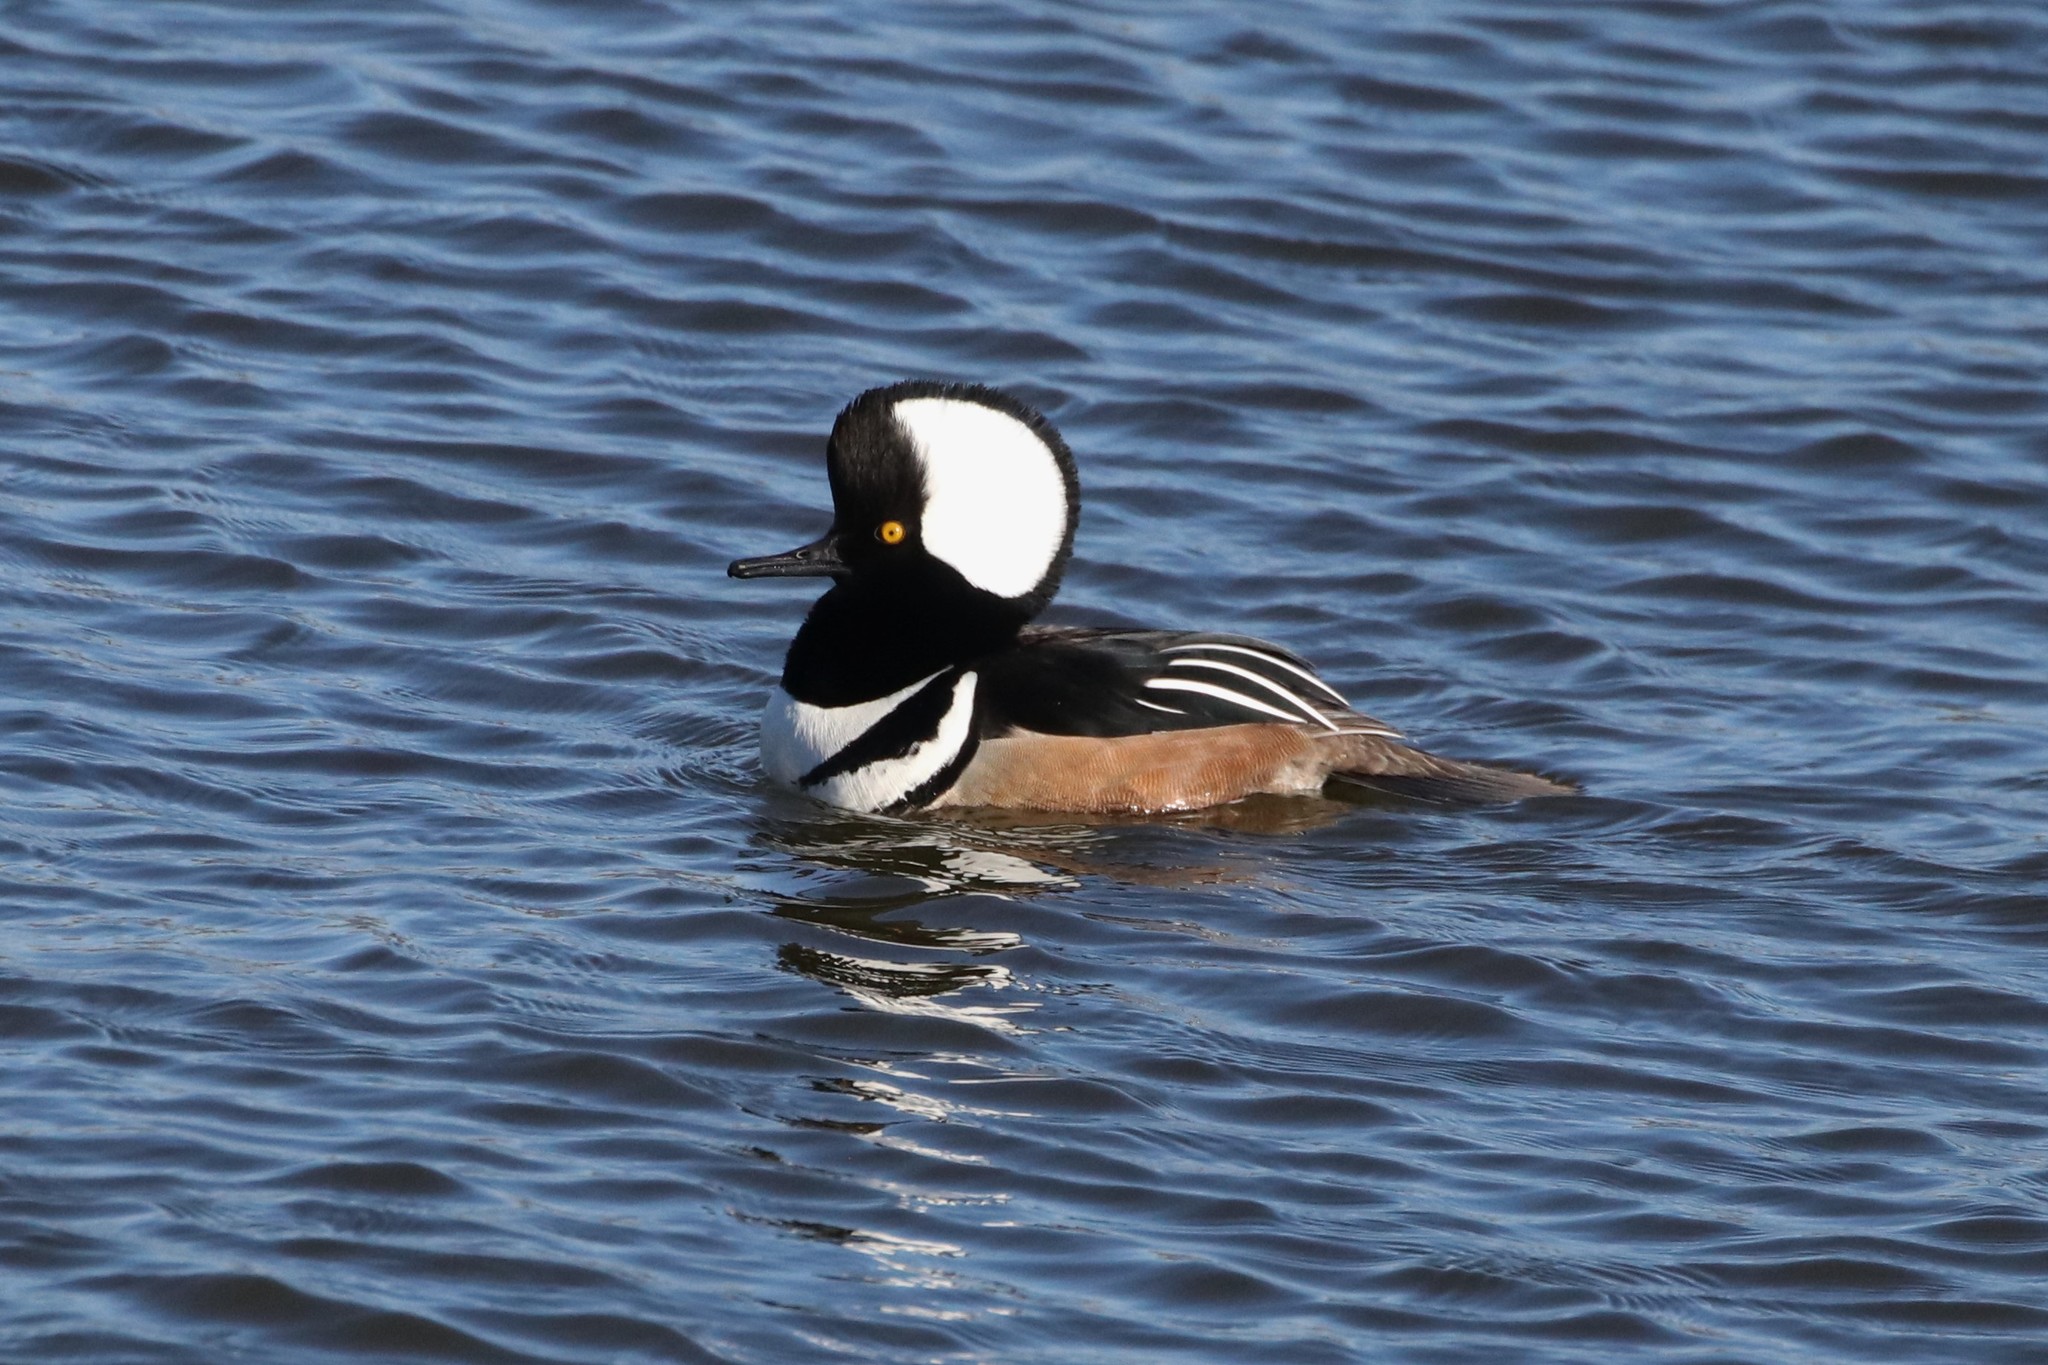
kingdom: Animalia
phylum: Chordata
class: Aves
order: Anseriformes
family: Anatidae
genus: Lophodytes
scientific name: Lophodytes cucullatus
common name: Hooded merganser
